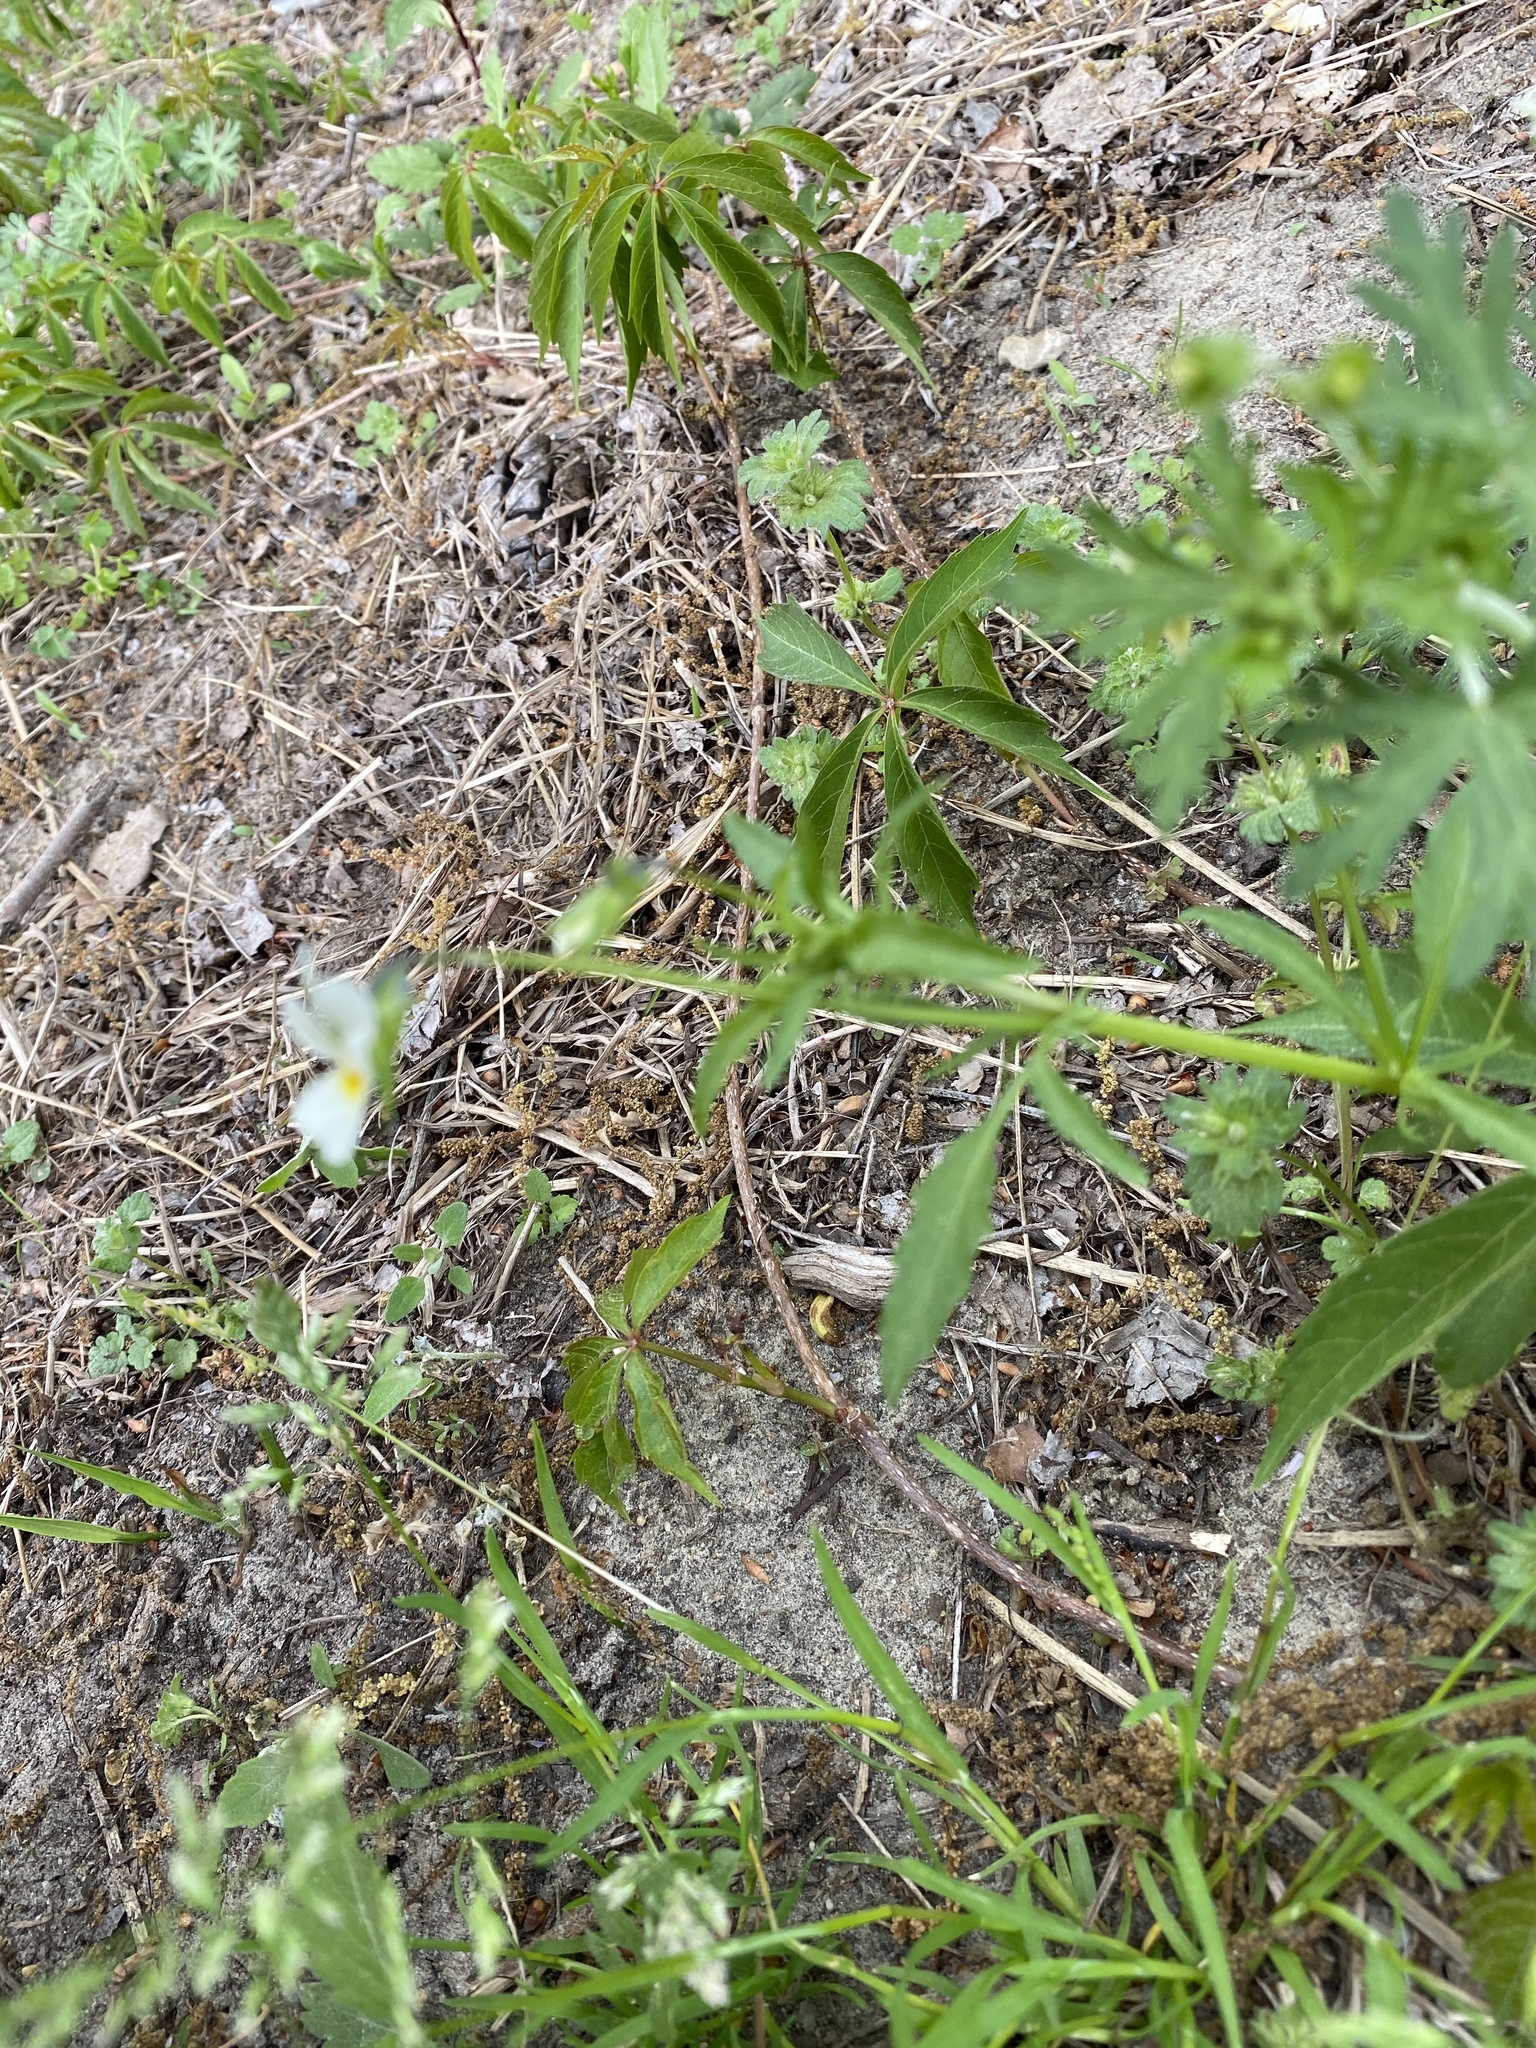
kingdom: Plantae
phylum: Tracheophyta
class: Magnoliopsida
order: Malpighiales
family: Violaceae
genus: Viola
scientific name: Viola arvensis
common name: Field pansy
